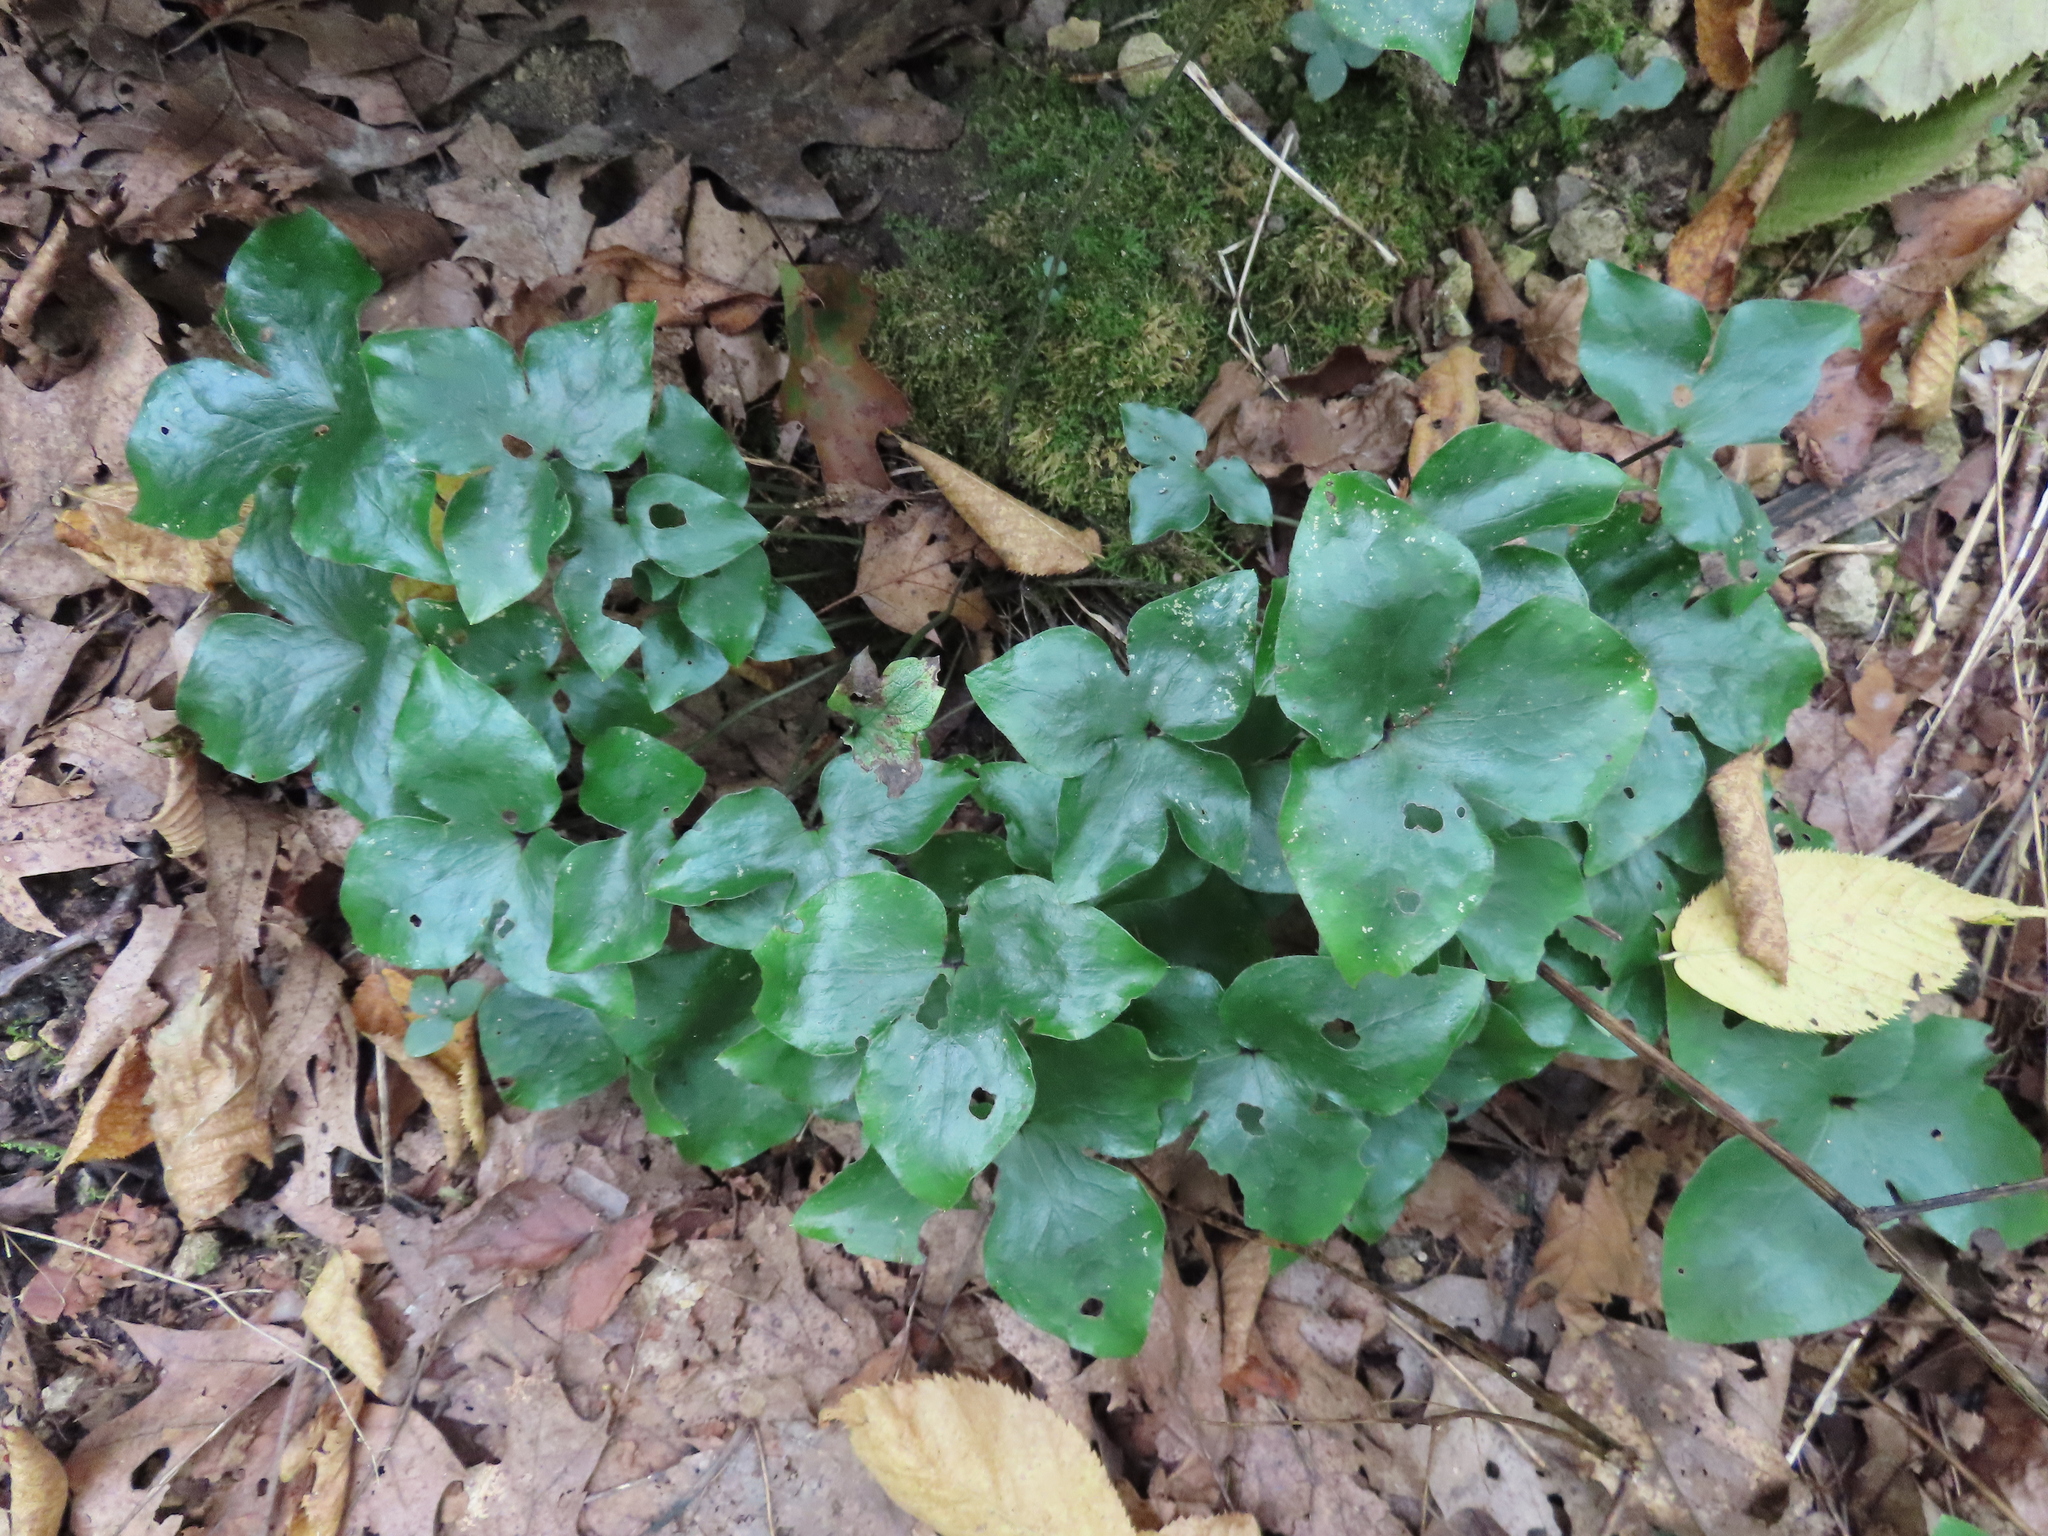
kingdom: Plantae
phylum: Tracheophyta
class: Magnoliopsida
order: Ranunculales
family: Ranunculaceae
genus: Hepatica
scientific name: Hepatica acutiloba
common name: Sharp-lobed hepatica
